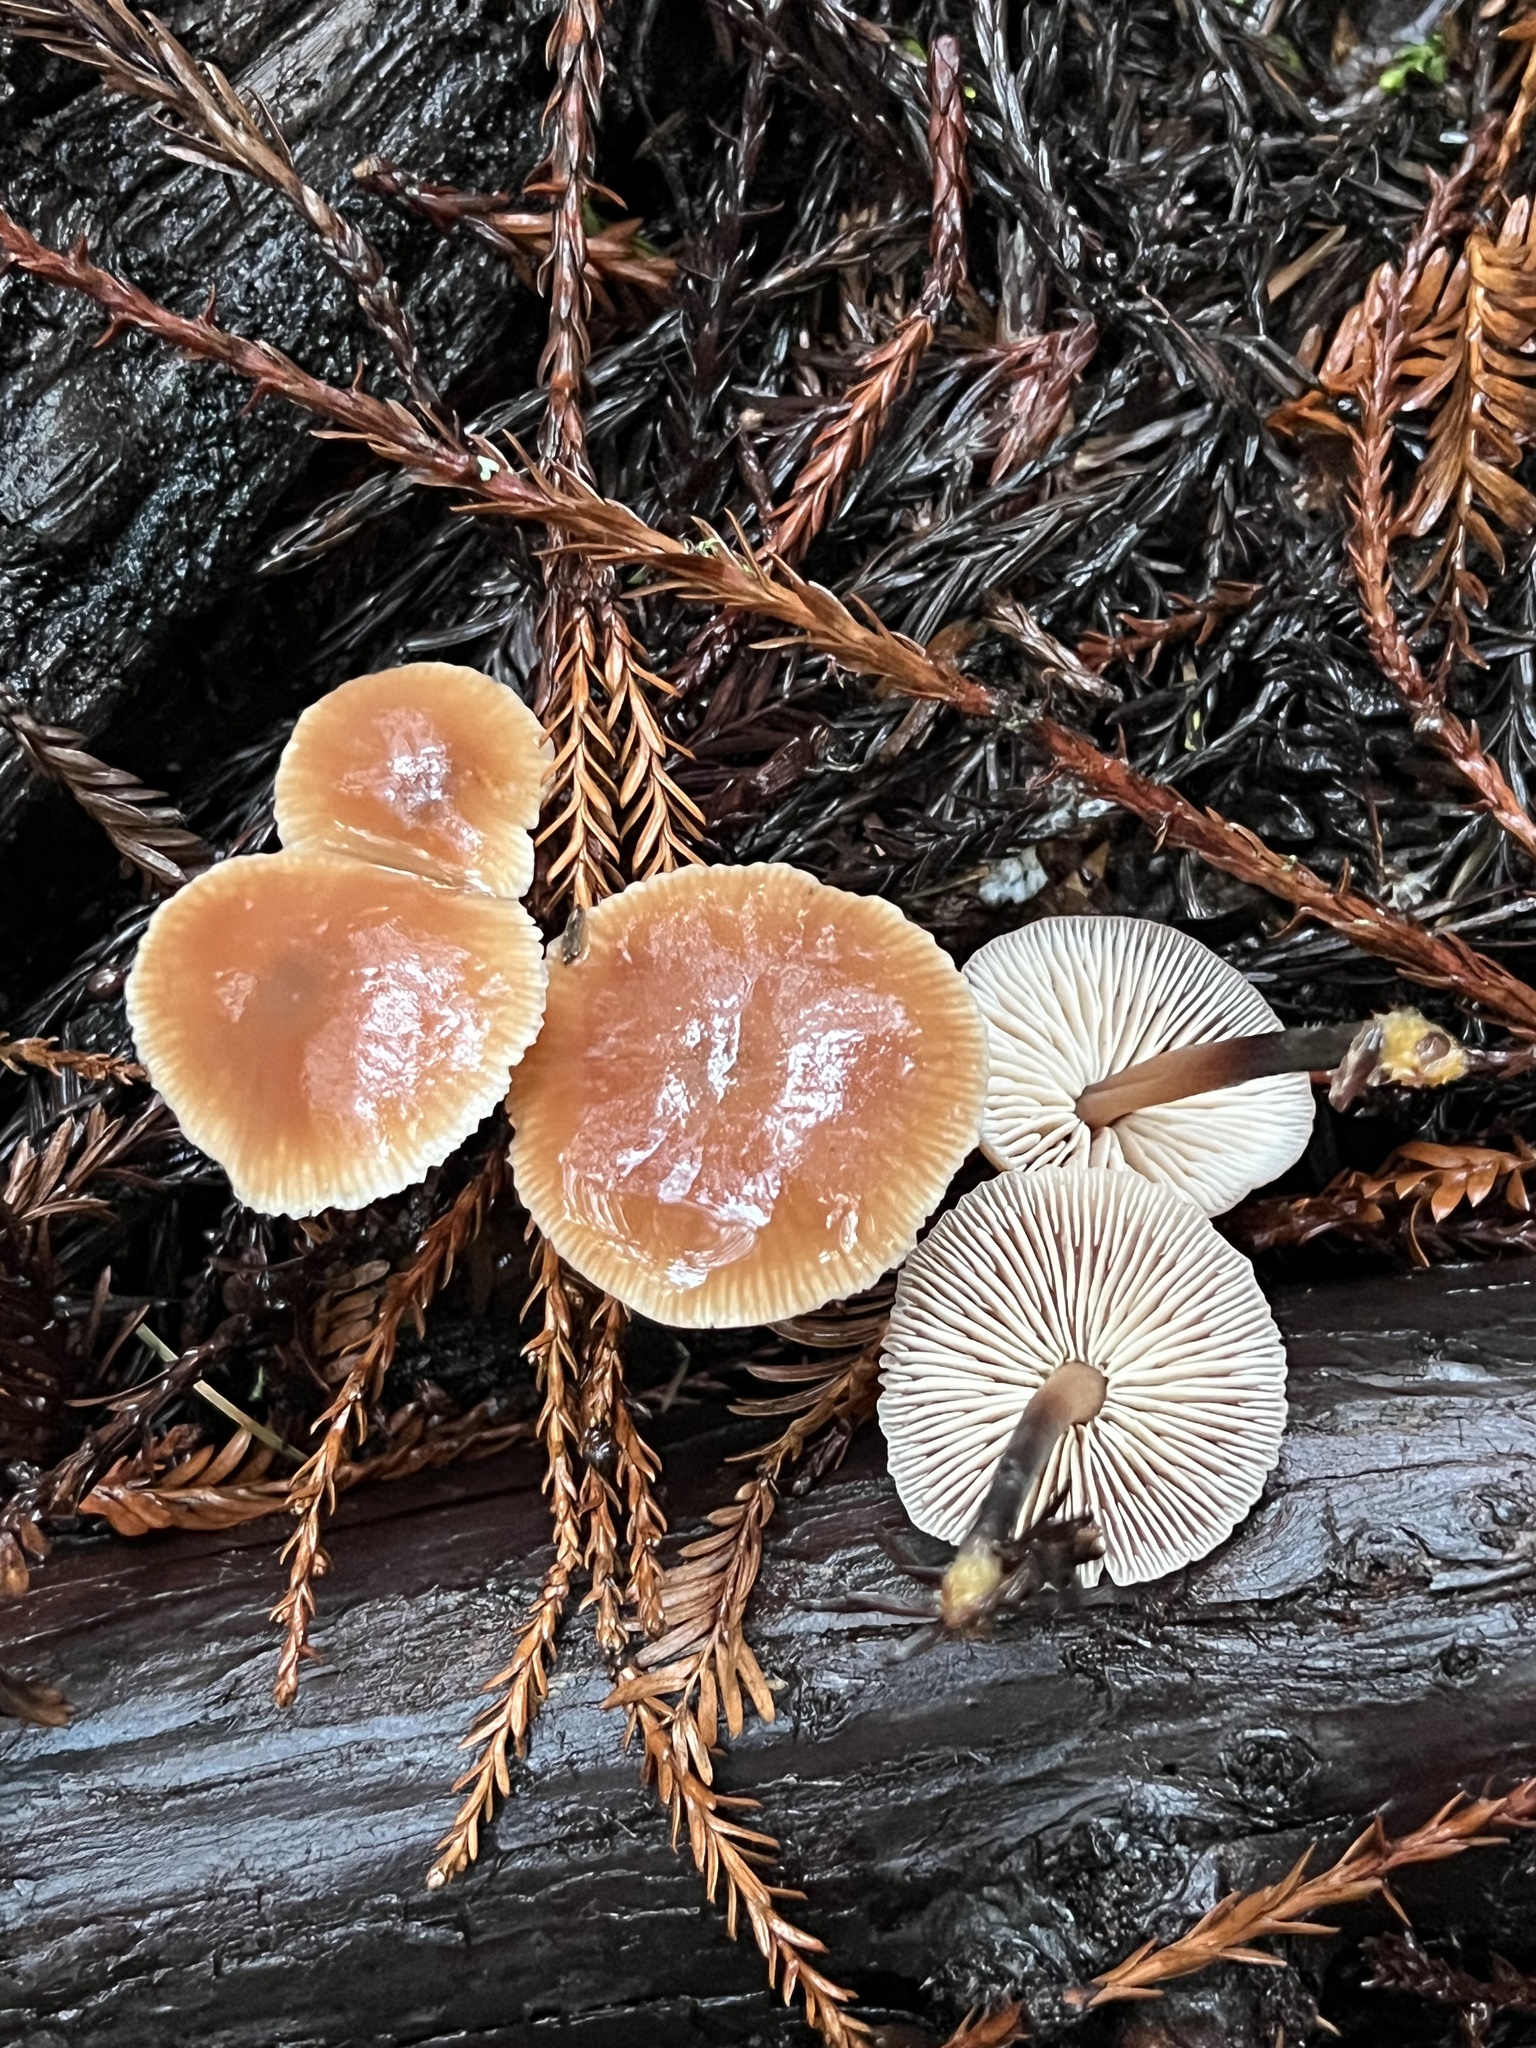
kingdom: Fungi
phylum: Basidiomycota
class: Agaricomycetes
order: Agaricales
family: Omphalotaceae
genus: Gymnopus
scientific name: Gymnopus brassicolens
